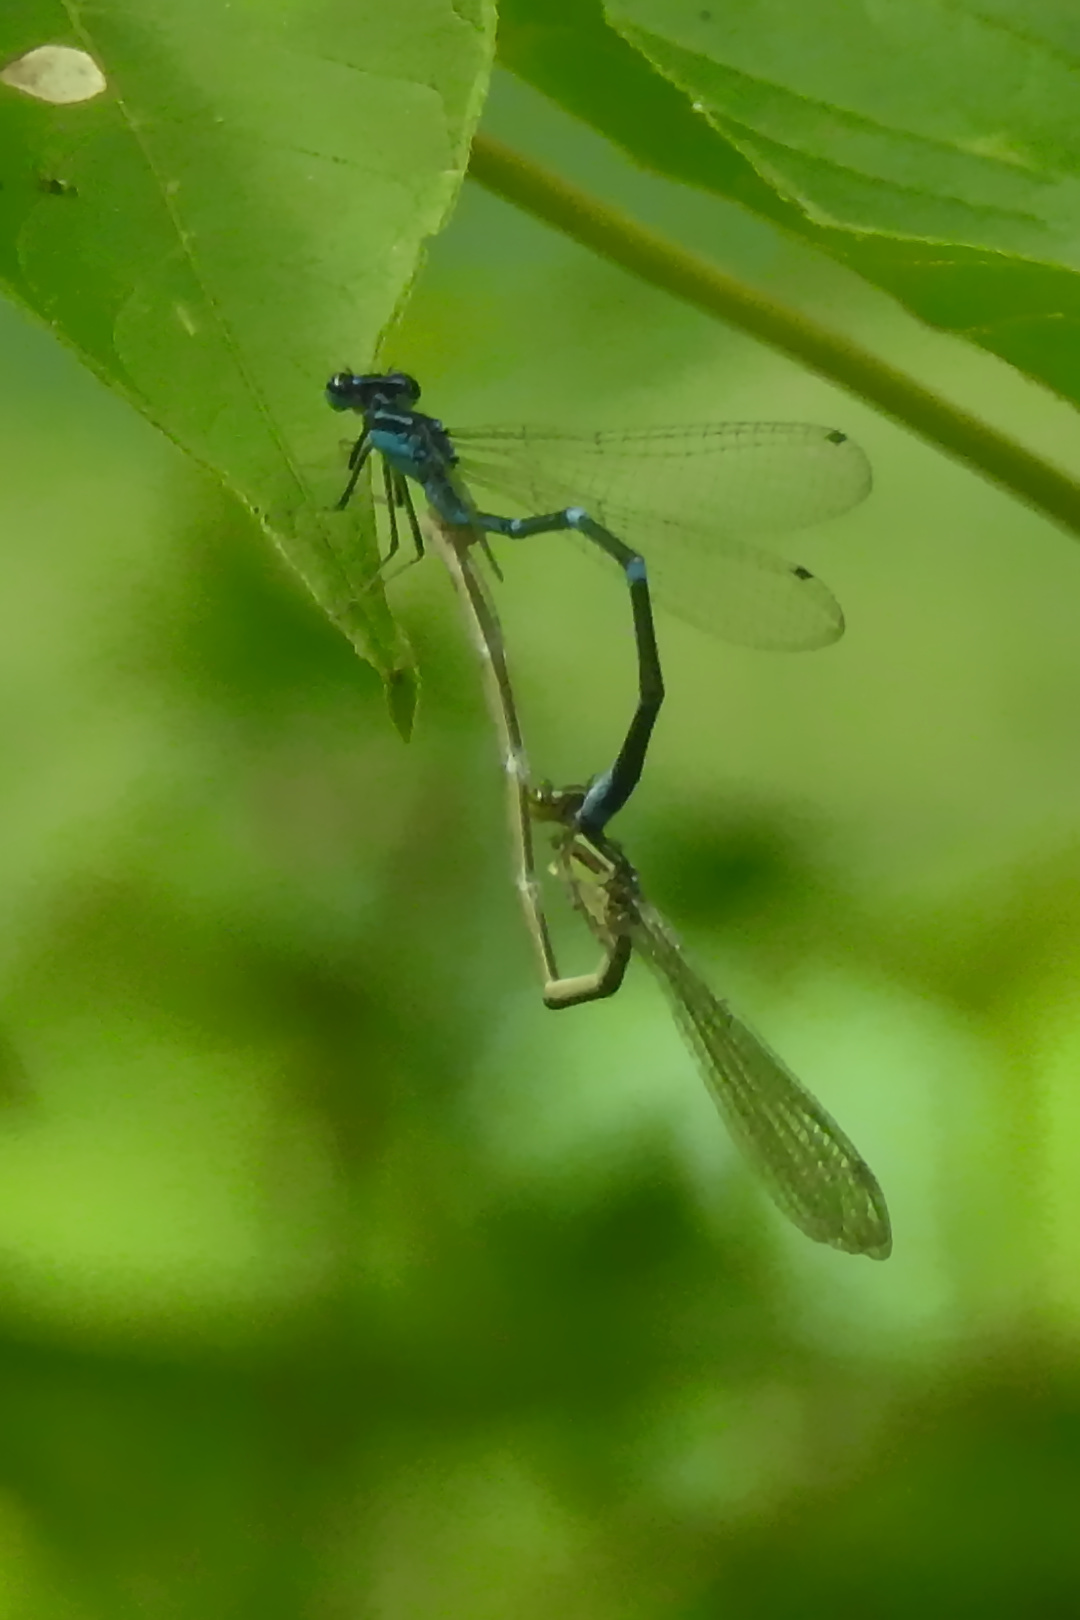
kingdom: Animalia
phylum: Arthropoda
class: Insecta
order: Odonata
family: Coenagrionidae
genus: Enallagma
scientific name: Enallagma exsulans
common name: Stream bluet
